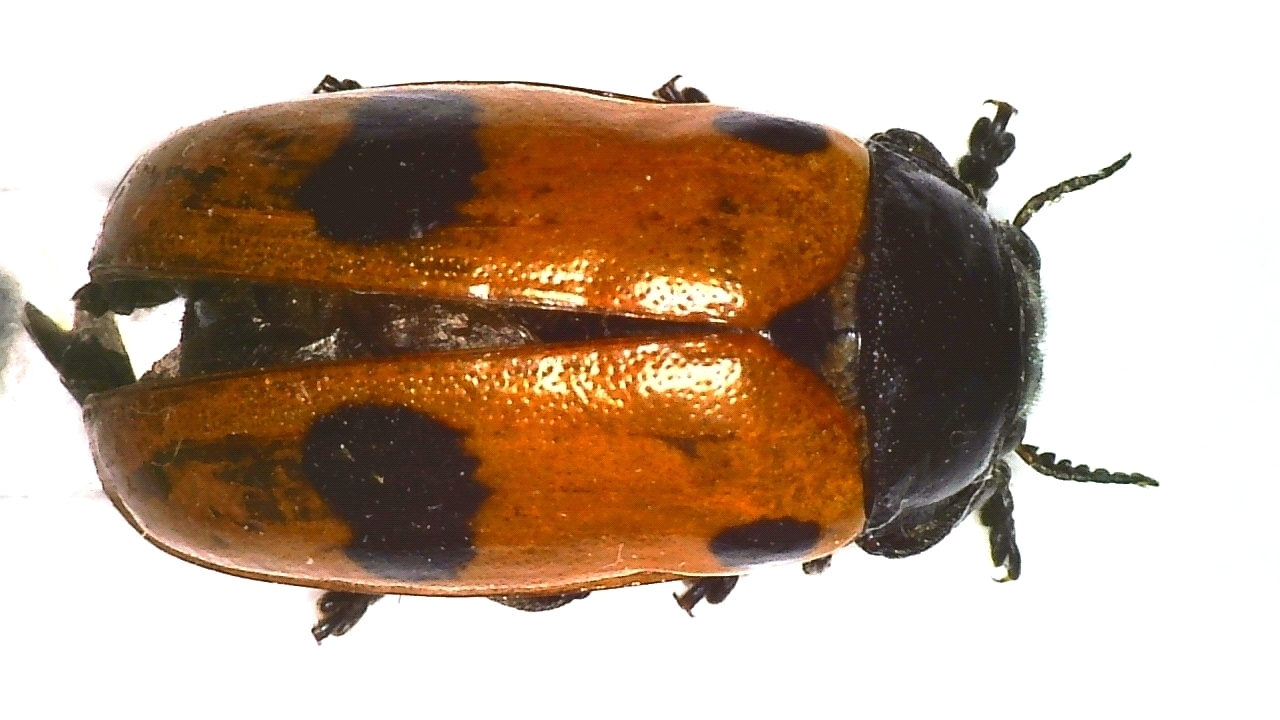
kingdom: Animalia
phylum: Arthropoda
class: Insecta
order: Coleoptera
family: Chrysomelidae
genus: Clytra
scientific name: Clytra laeviuscula
